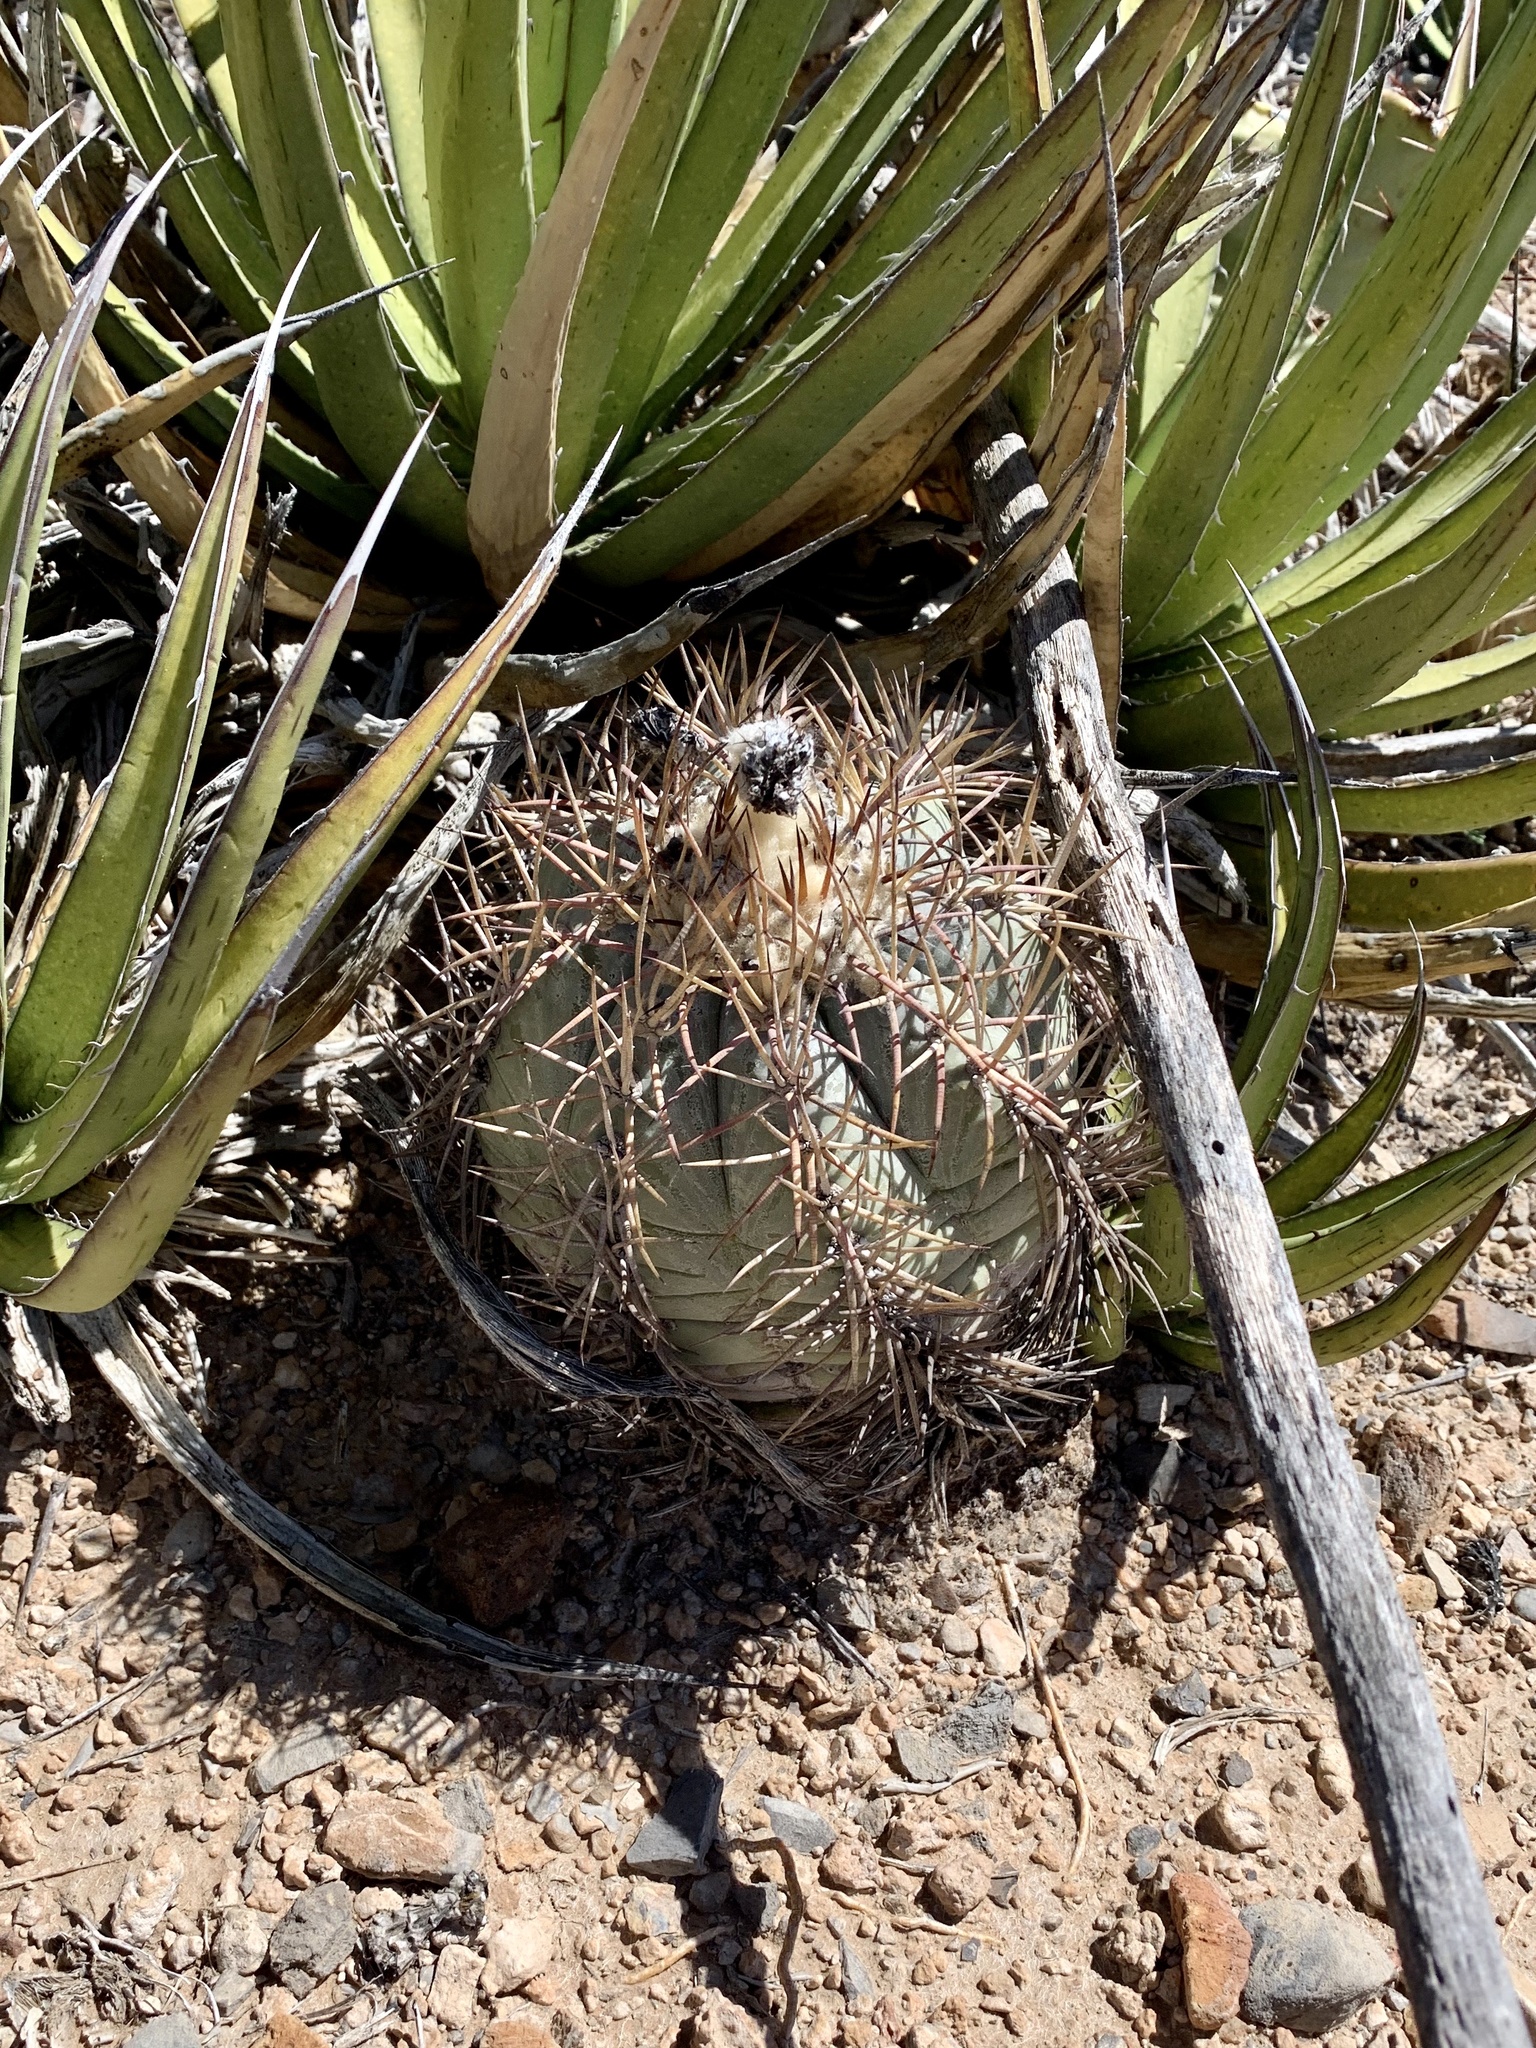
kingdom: Plantae
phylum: Tracheophyta
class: Magnoliopsida
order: Caryophyllales
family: Cactaceae
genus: Echinocactus
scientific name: Echinocactus horizonthalonius
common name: Devilshead
